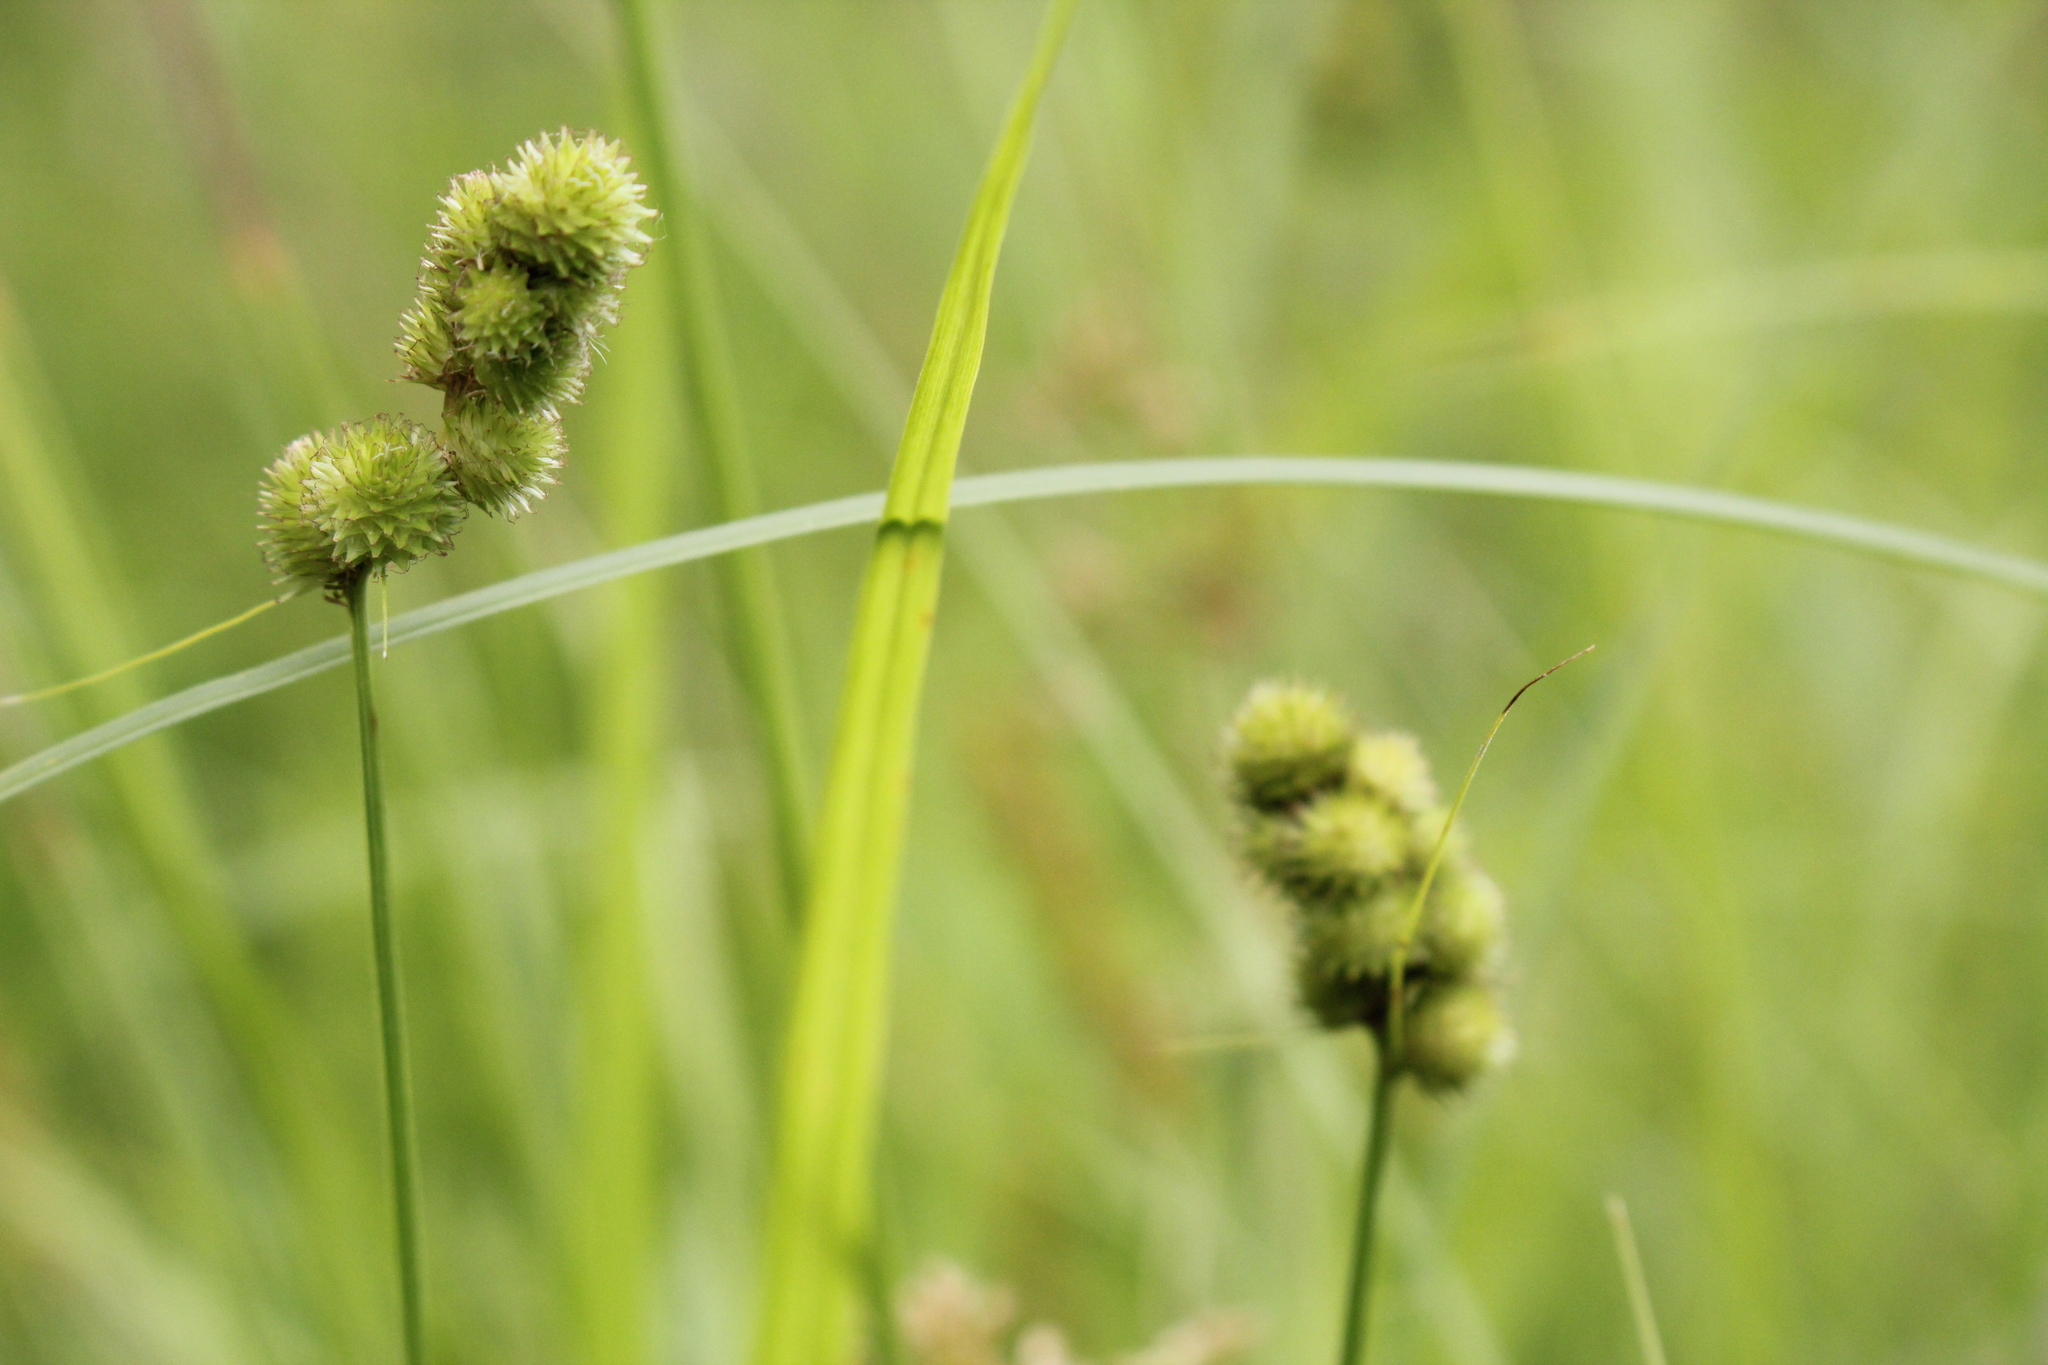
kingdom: Plantae
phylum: Tracheophyta
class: Liliopsida
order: Poales
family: Cyperaceae
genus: Carex
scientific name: Carex cristatella
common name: Crested oval sedge
